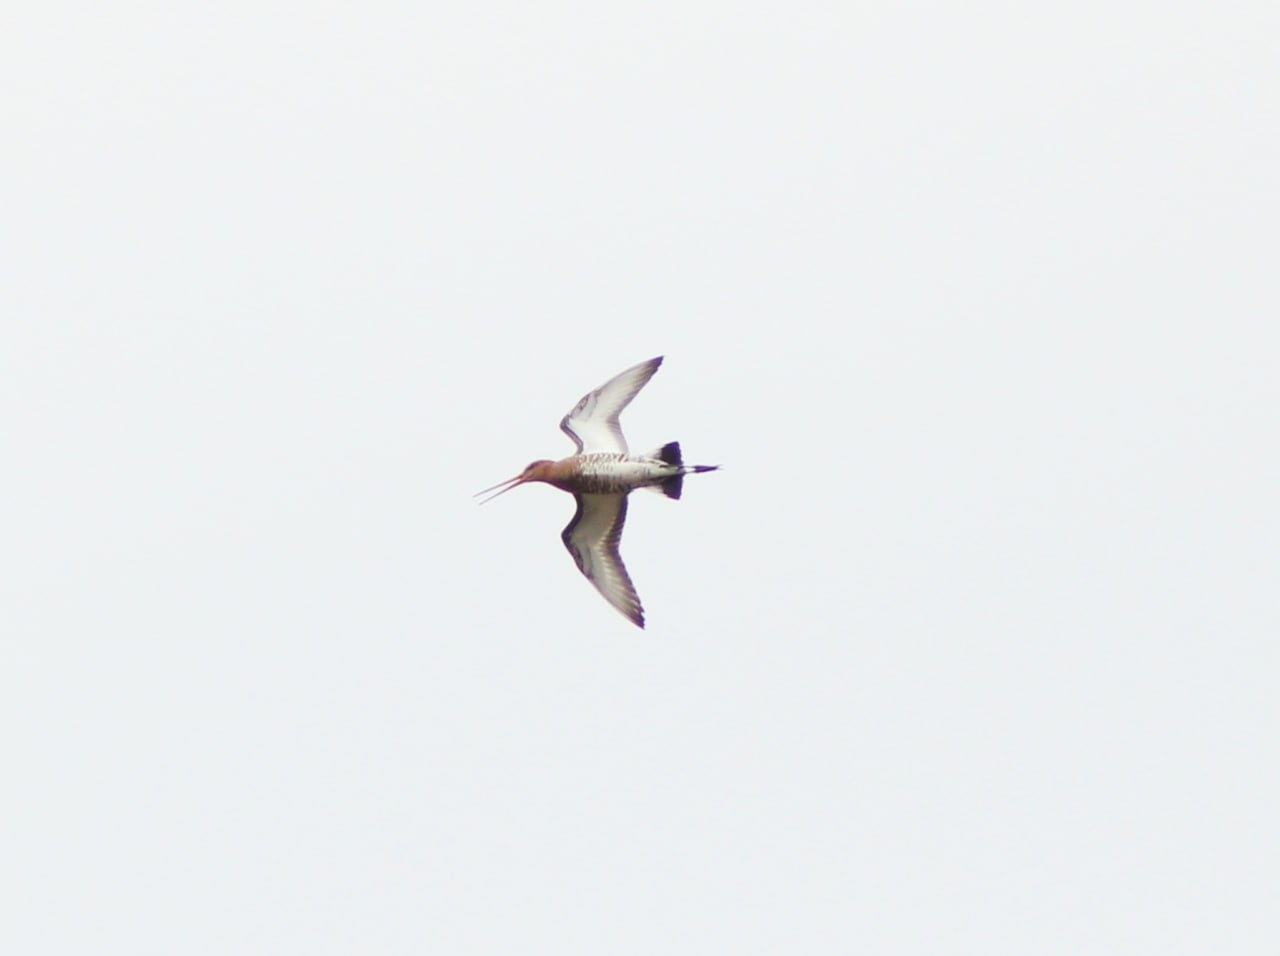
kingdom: Animalia
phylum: Chordata
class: Aves
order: Charadriiformes
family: Scolopacidae
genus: Limosa
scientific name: Limosa limosa
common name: Black-tailed godwit
